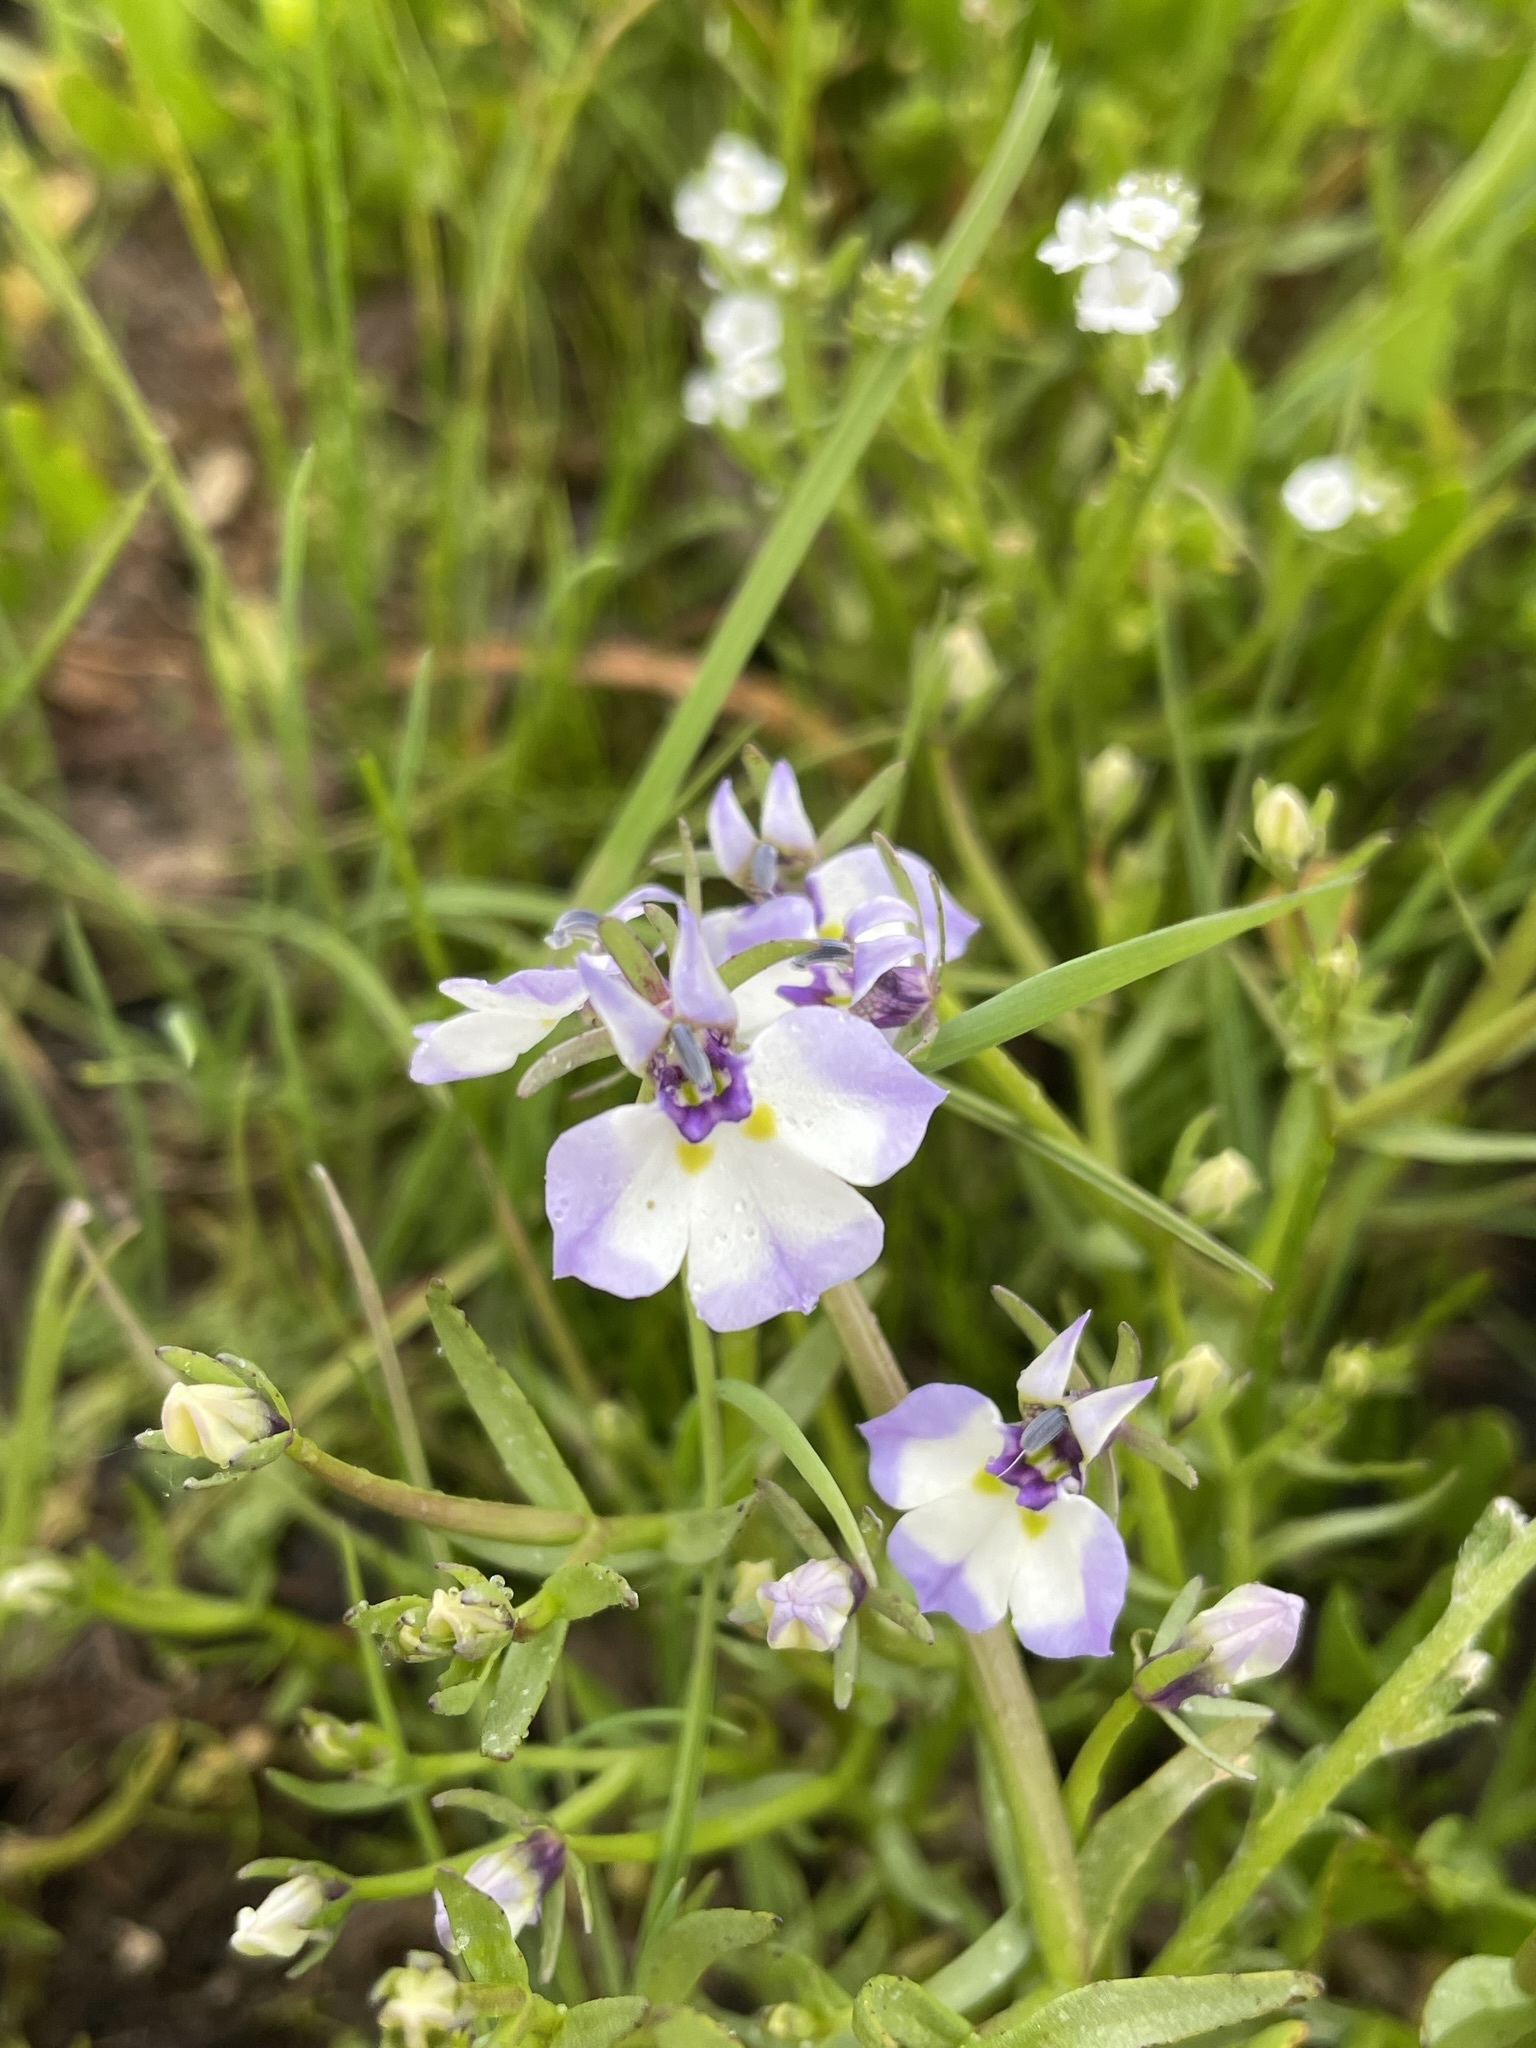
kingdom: Plantae
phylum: Tracheophyta
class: Magnoliopsida
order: Asterales
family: Campanulaceae
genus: Downingia
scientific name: Downingia bicornuta
